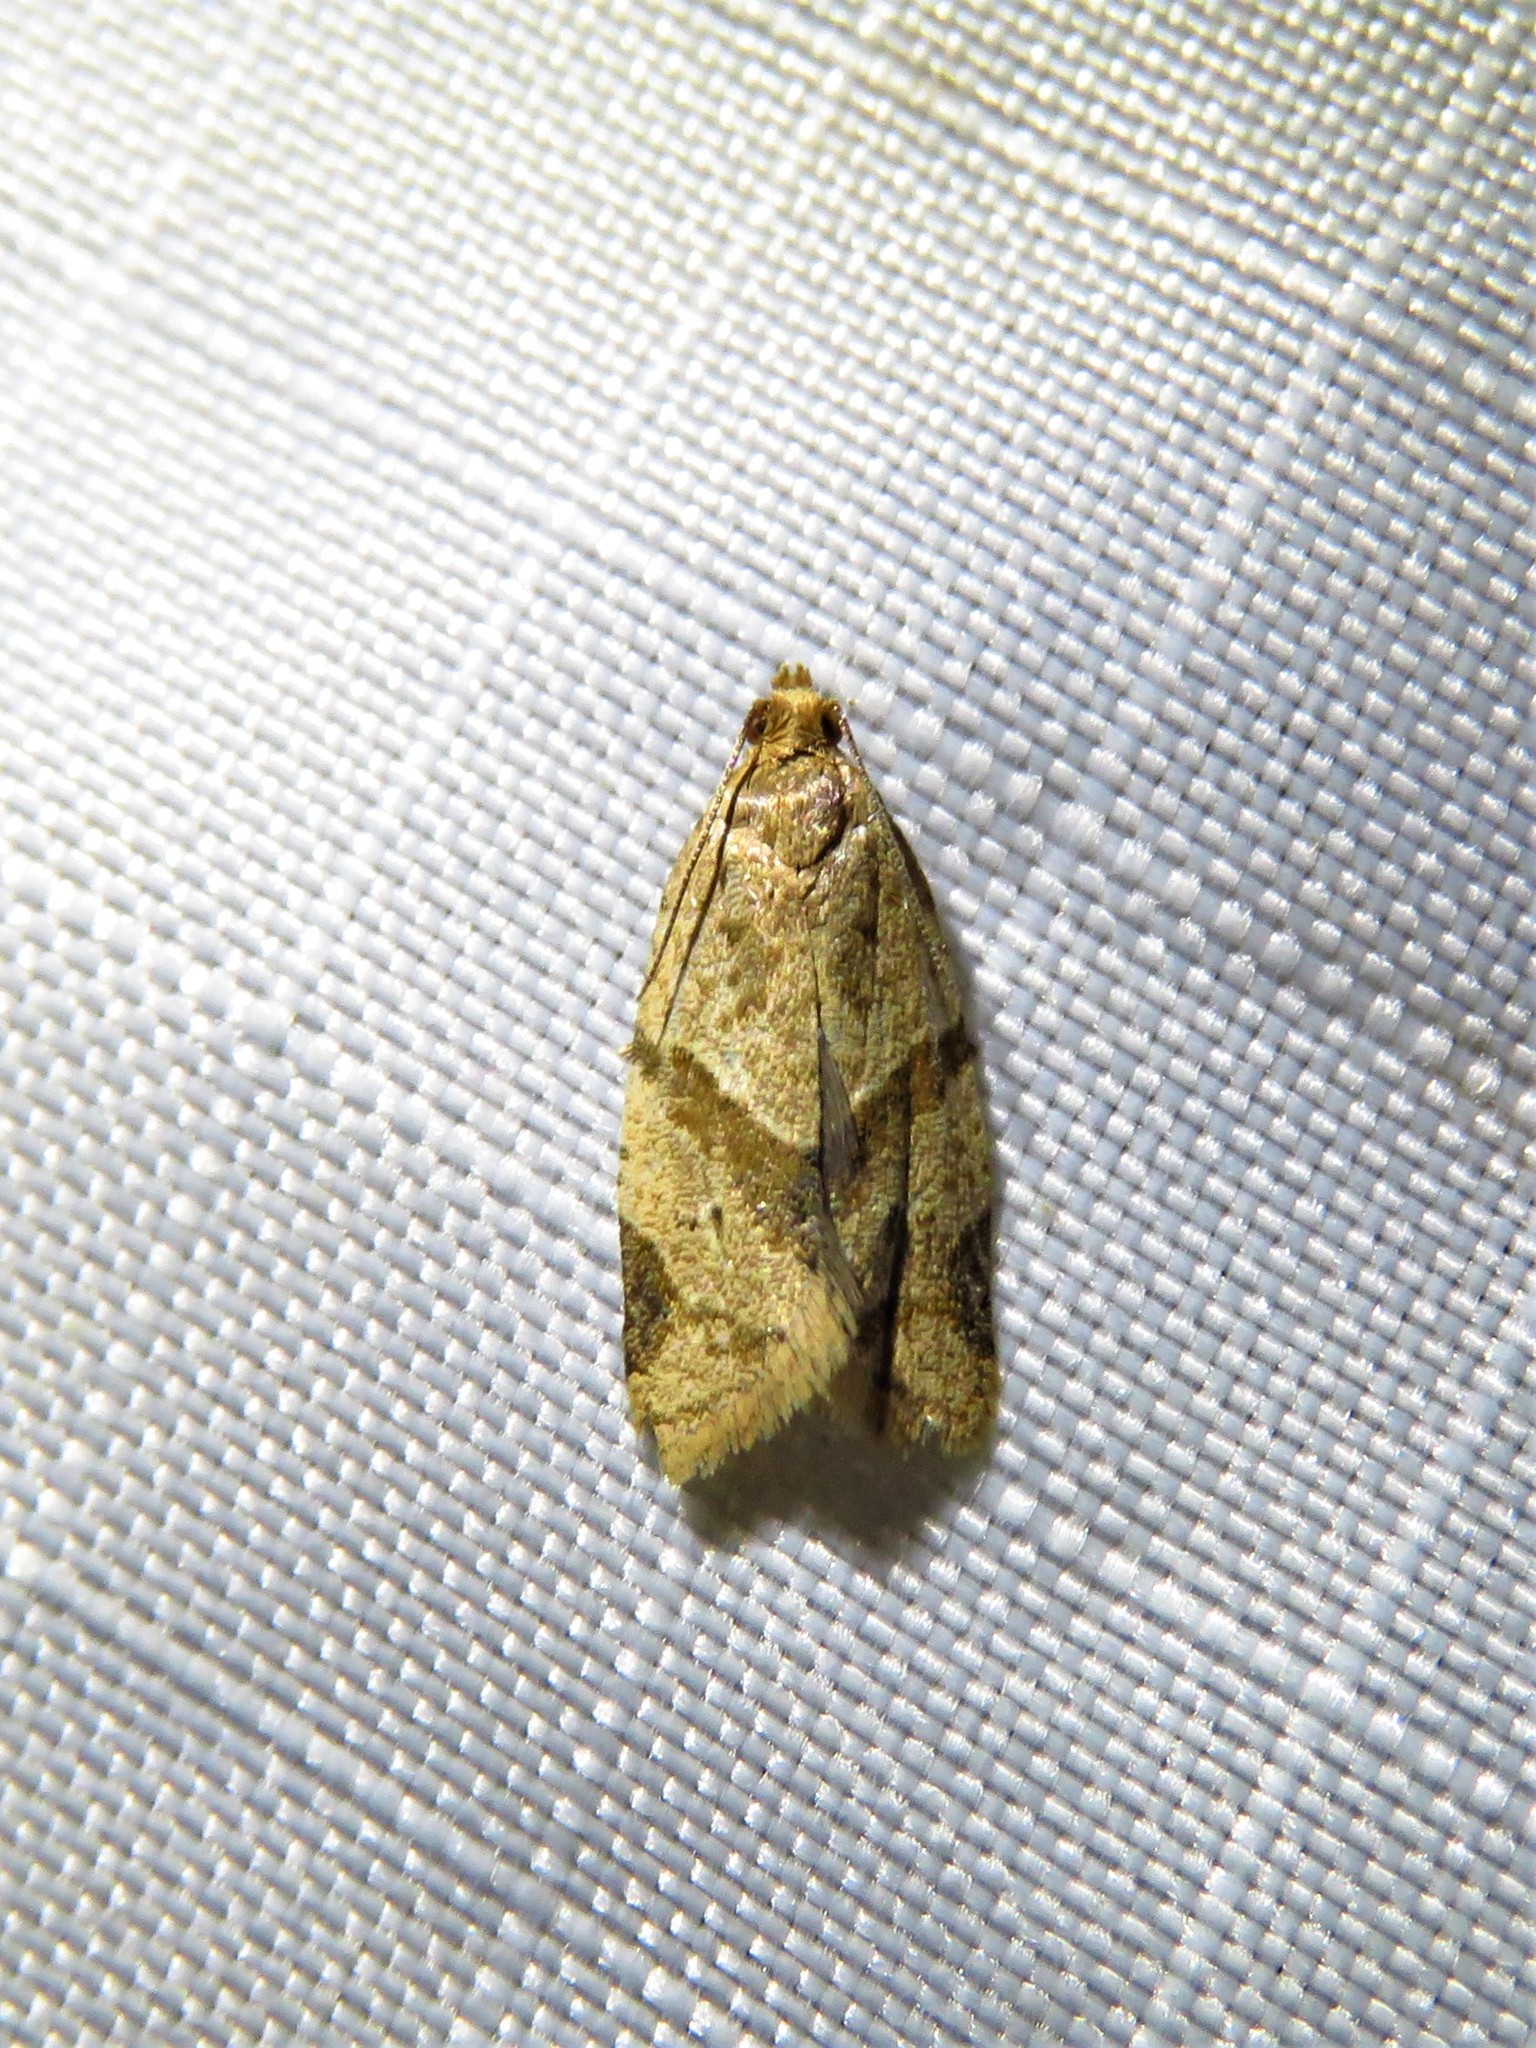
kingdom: Animalia
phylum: Arthropoda
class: Insecta
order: Lepidoptera
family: Tortricidae
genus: Clepsis
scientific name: Clepsis peritana
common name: Garden tortrix
